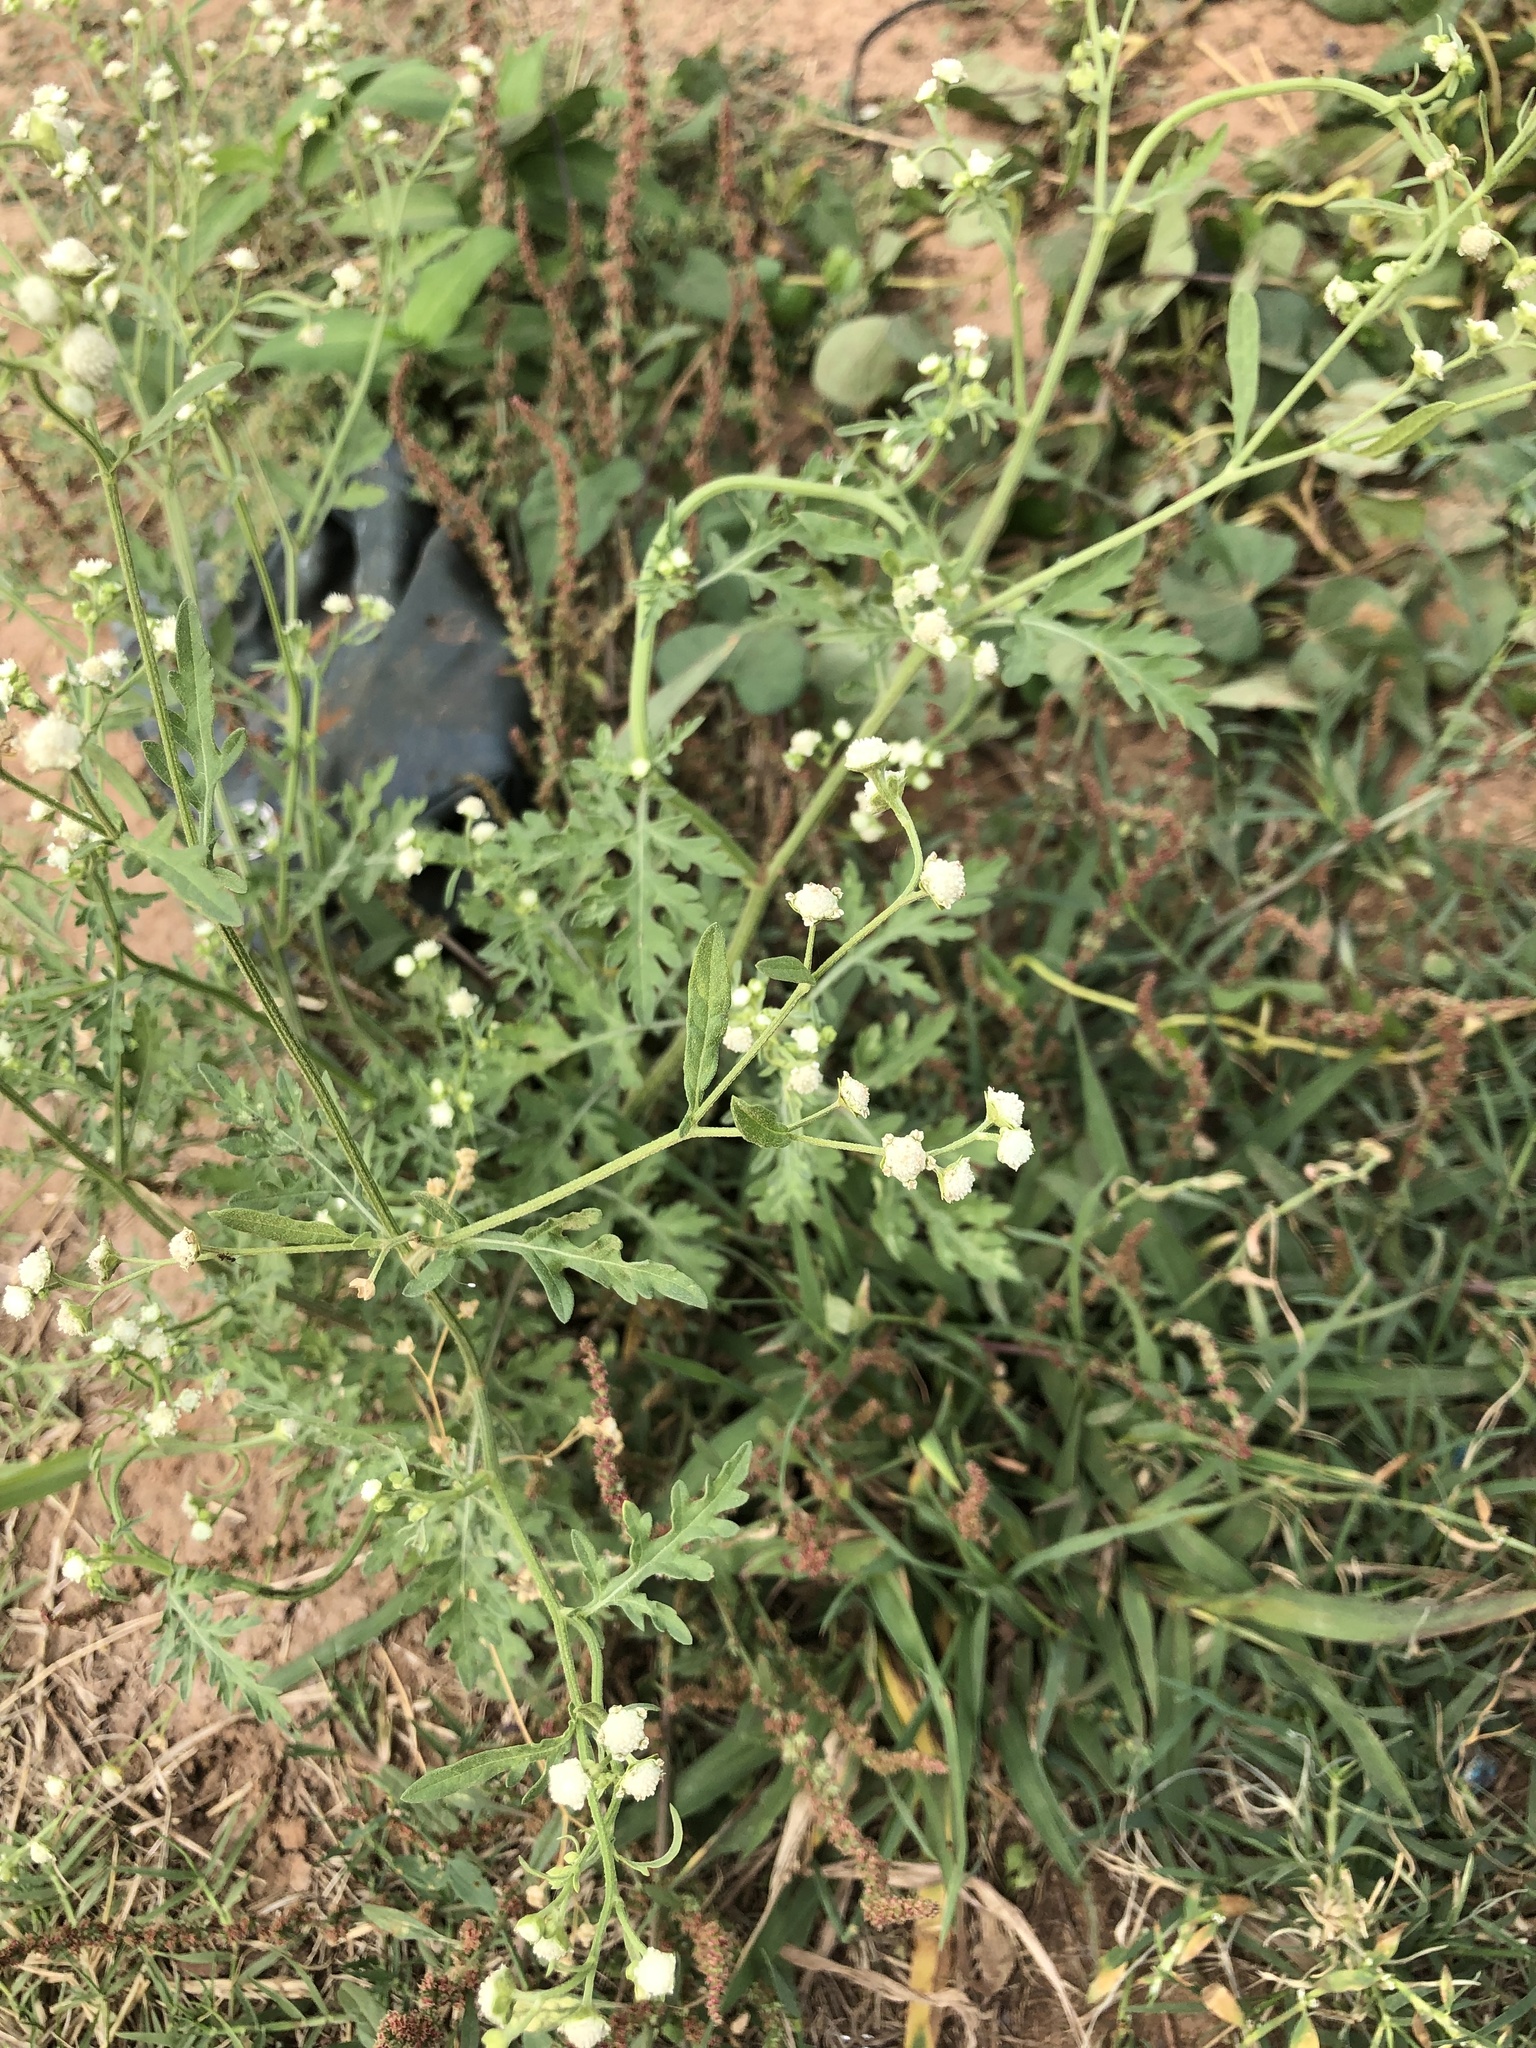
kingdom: Plantae
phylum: Tracheophyta
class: Magnoliopsida
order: Asterales
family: Asteraceae
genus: Parthenium
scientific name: Parthenium hysterophorus
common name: Santa maria feverfew
